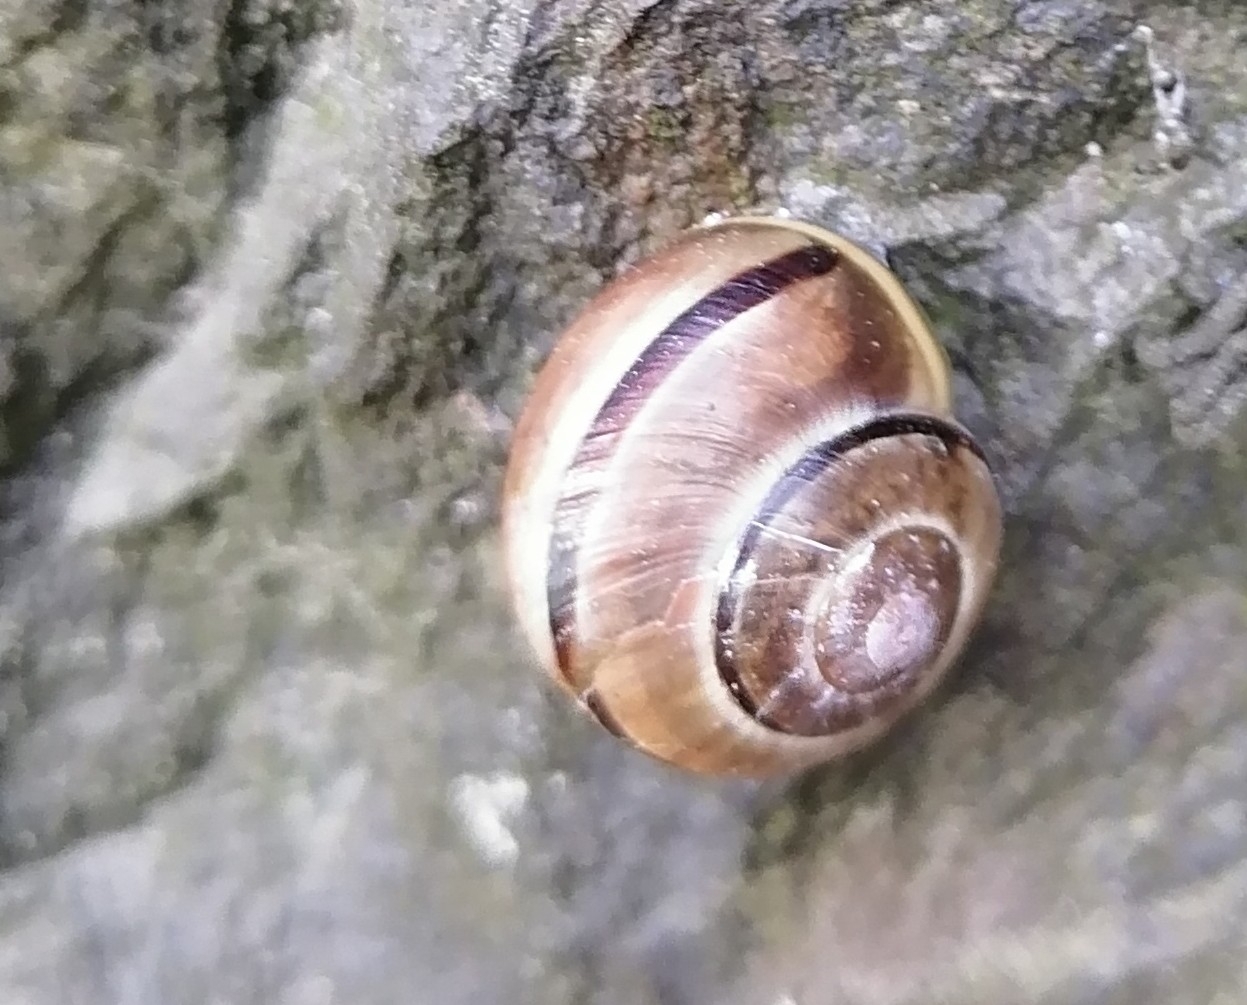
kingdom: Animalia
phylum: Mollusca
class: Gastropoda
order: Stylommatophora
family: Helicidae
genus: Cepaea
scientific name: Cepaea nemoralis
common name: Grovesnail
